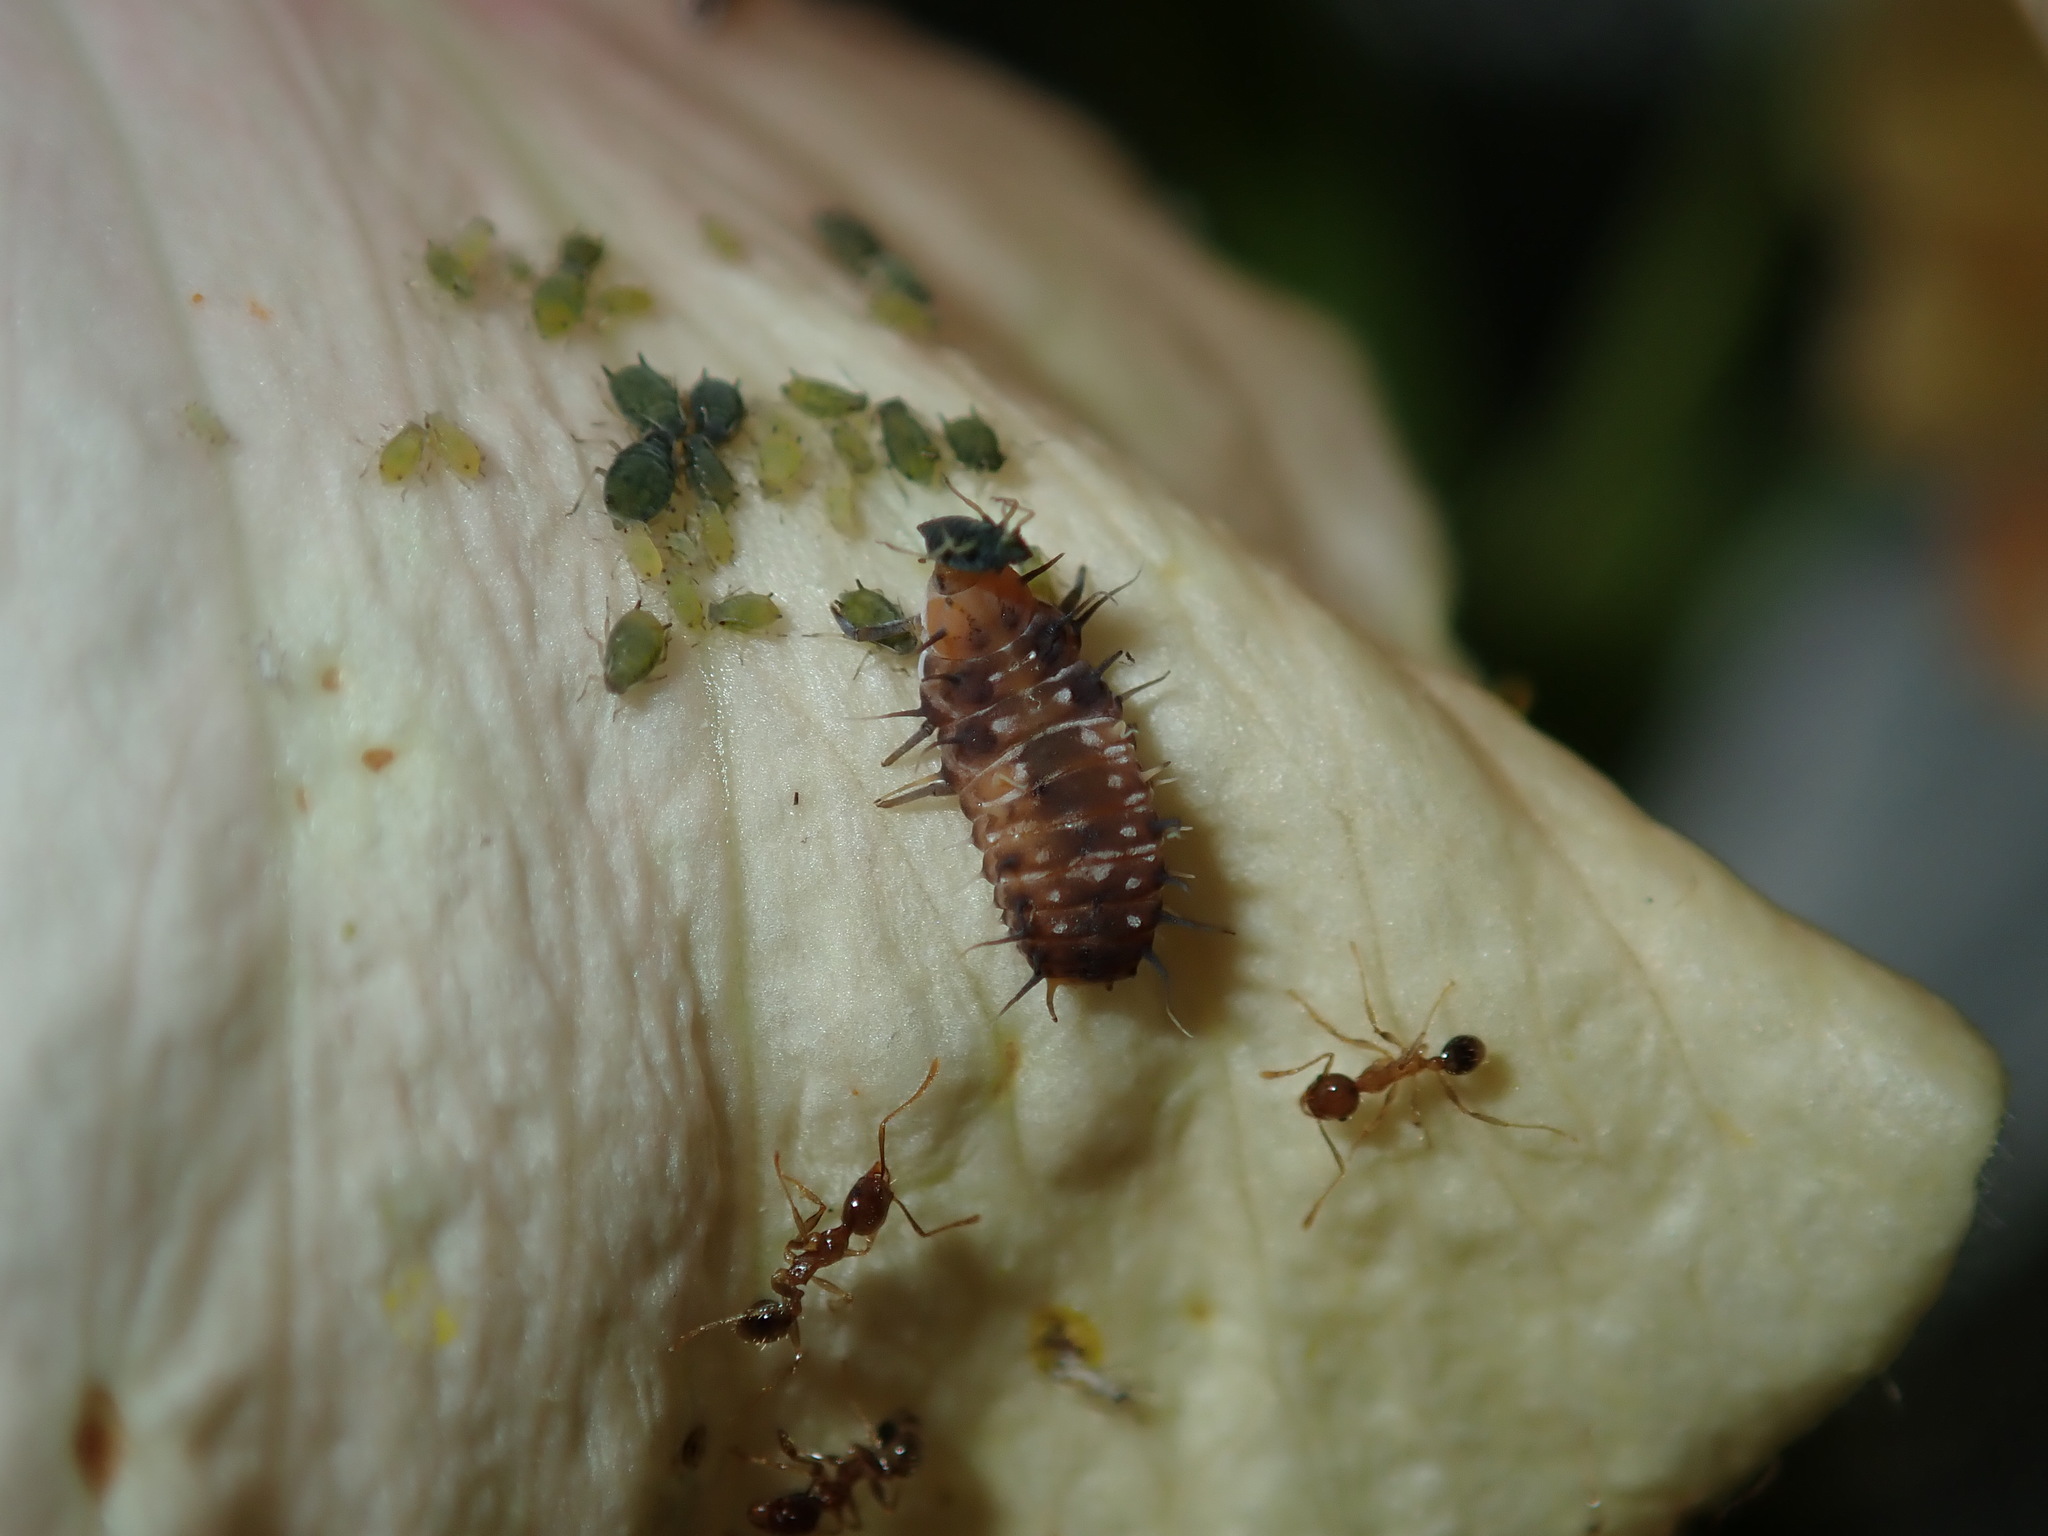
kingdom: Animalia
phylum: Arthropoda
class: Insecta
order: Coleoptera
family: Coccinellidae
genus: Scymnodes
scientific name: Scymnodes lividigaster
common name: Yellowshouldered lady beetle
